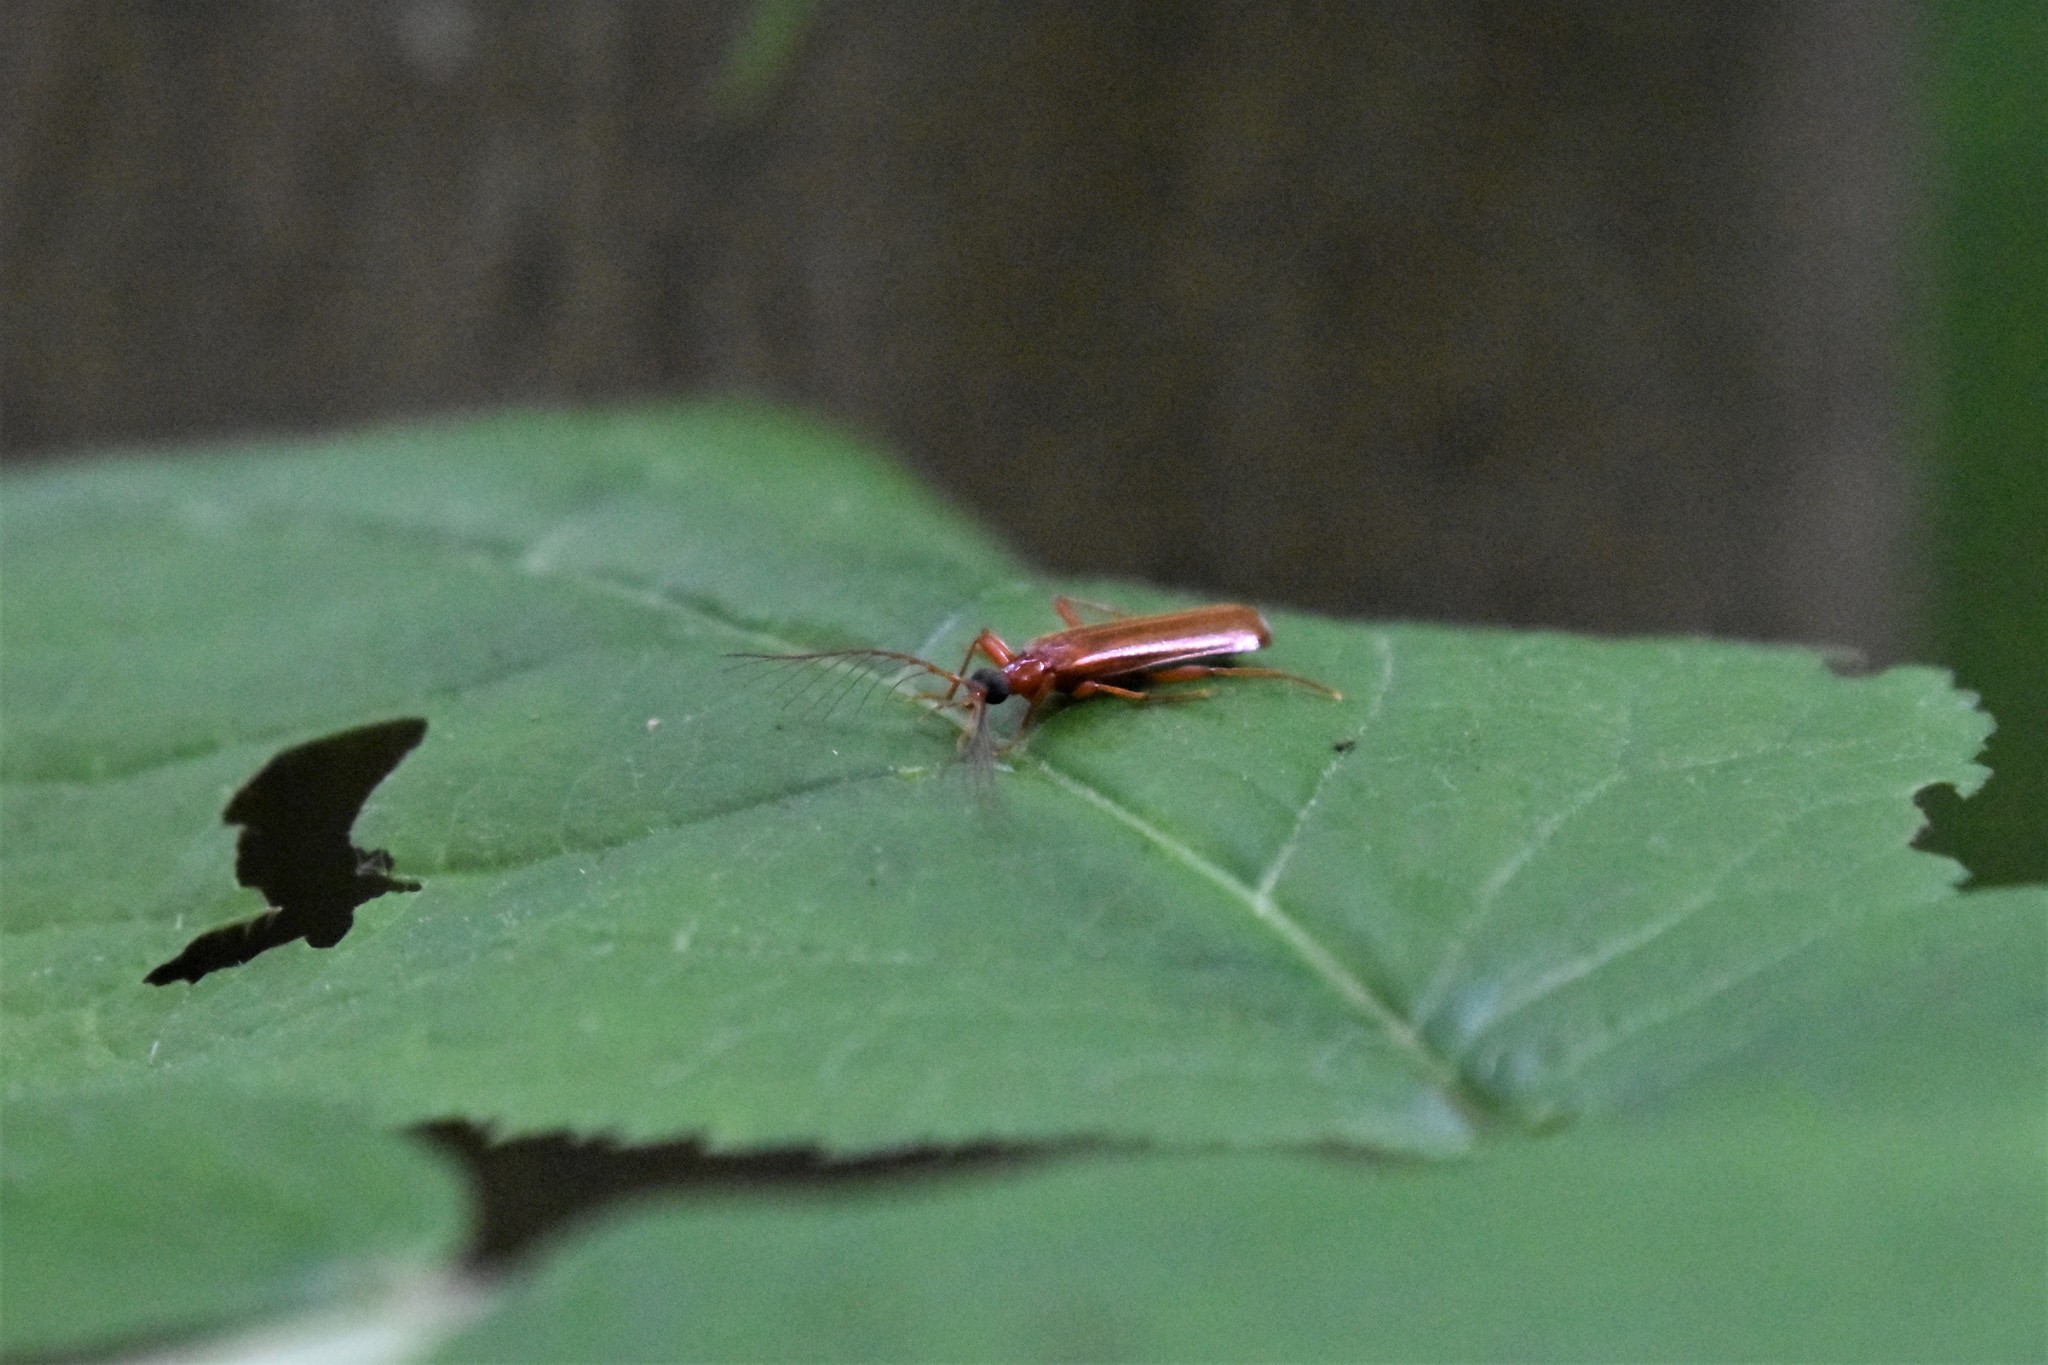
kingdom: Animalia
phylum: Arthropoda
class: Insecta
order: Coleoptera
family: Pyrochroidae
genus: Dendroides
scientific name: Dendroides ephemeroides
